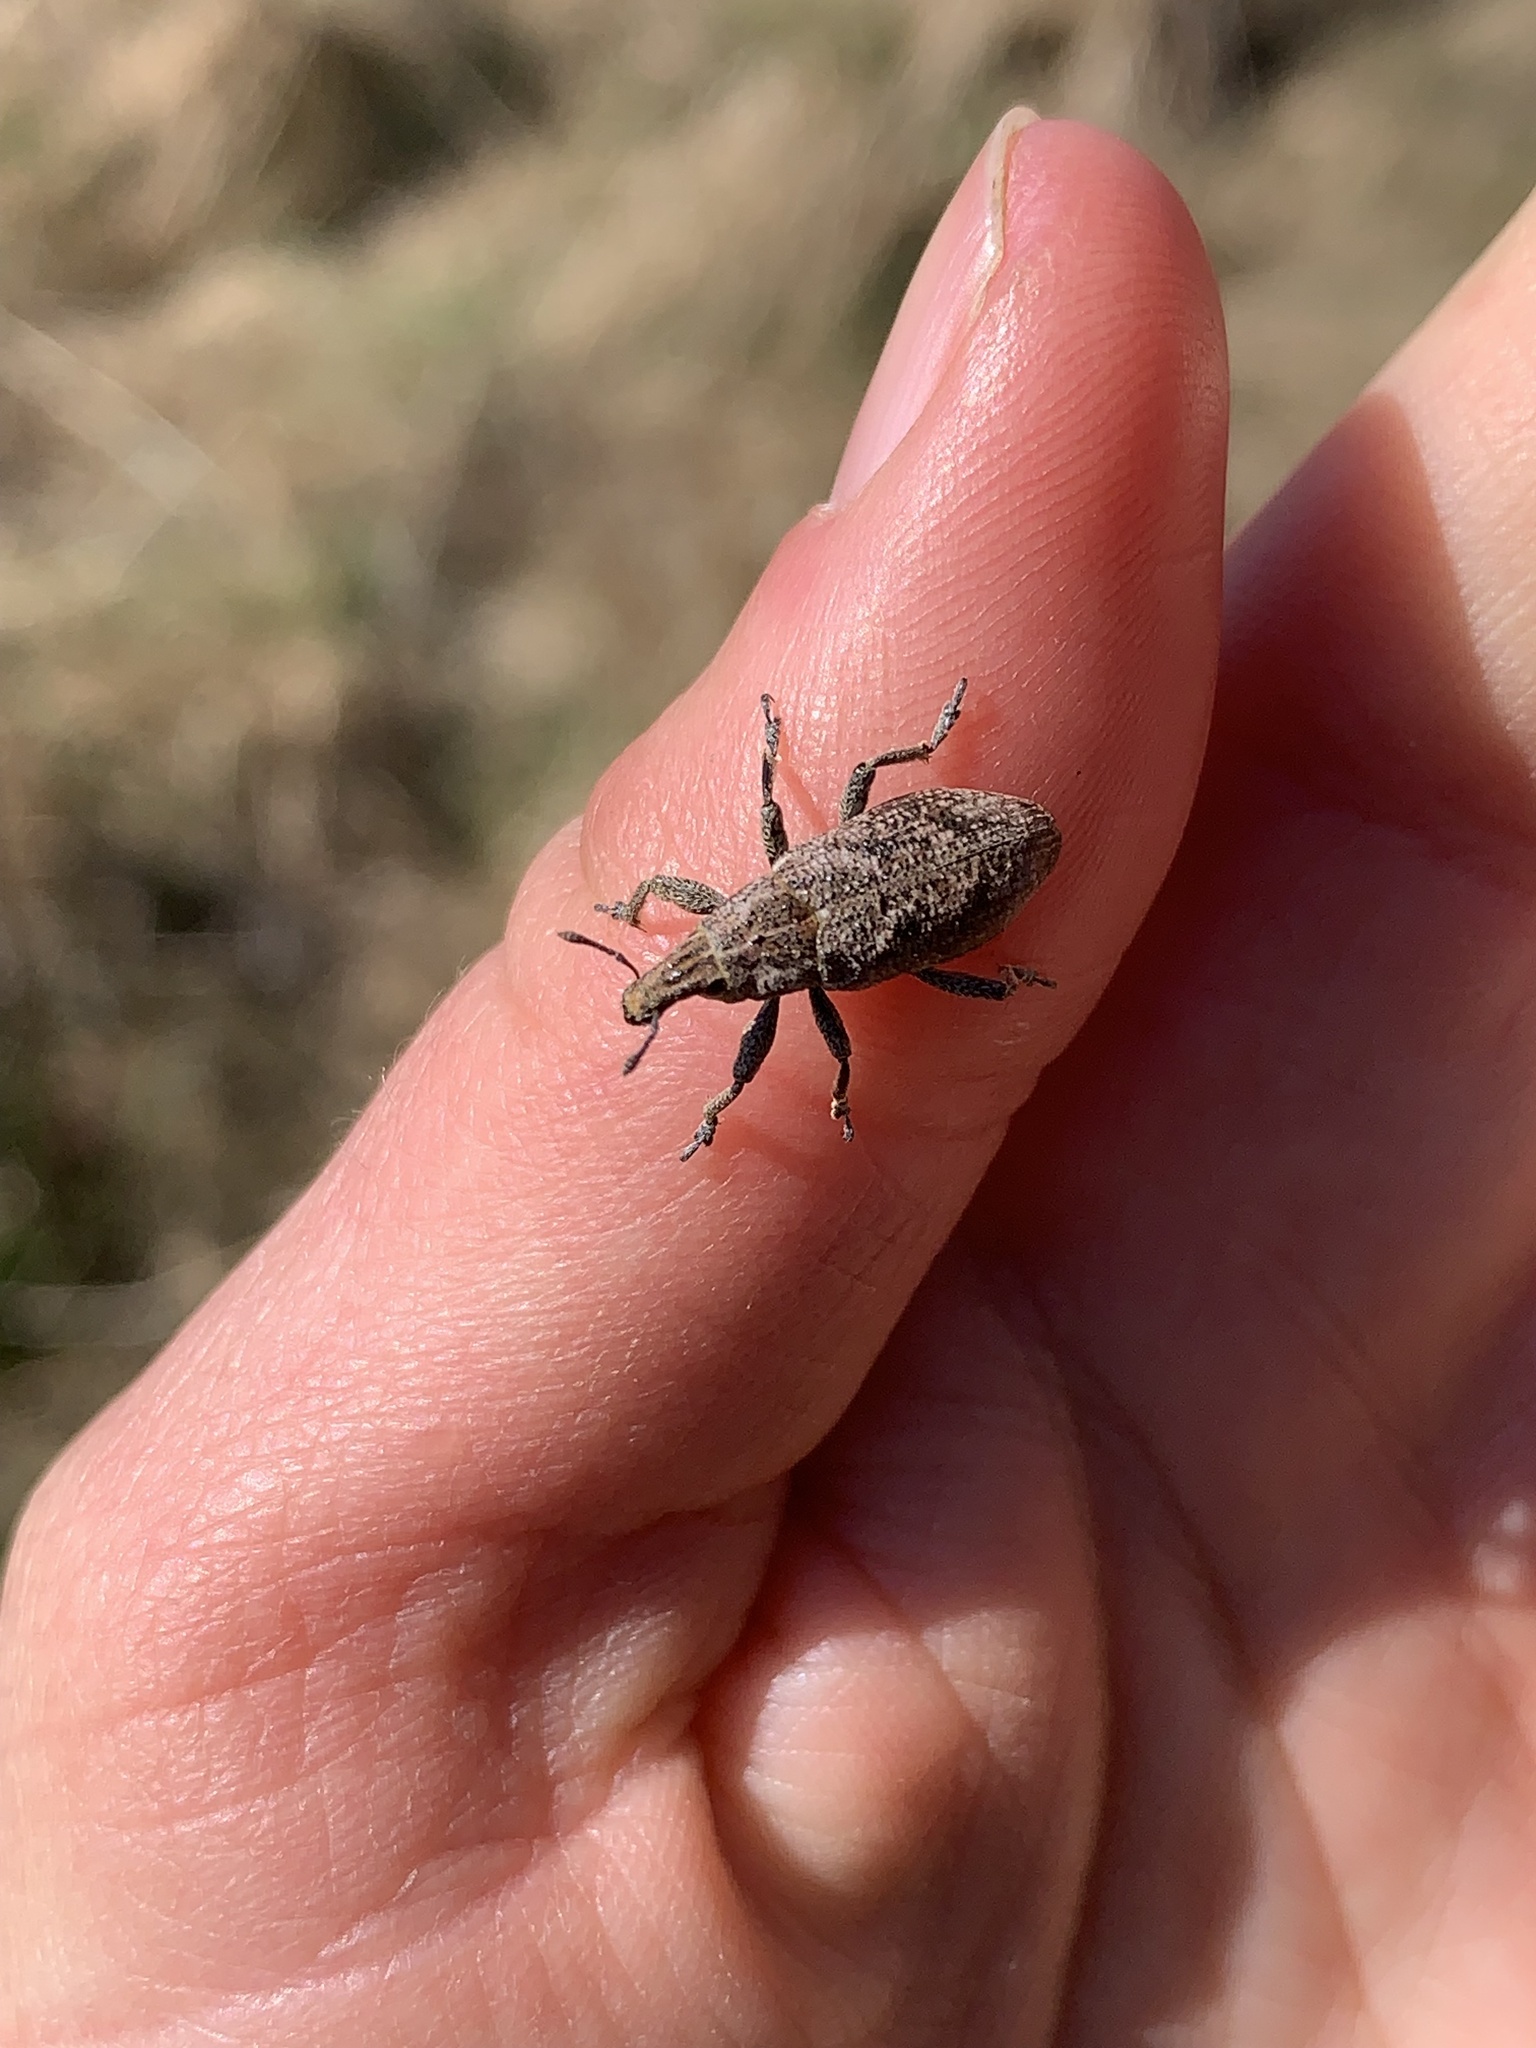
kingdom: Animalia
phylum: Arthropoda
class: Insecta
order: Coleoptera
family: Curculionidae
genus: Cleonis
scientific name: Cleonis pigra
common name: Large thistle weevil
